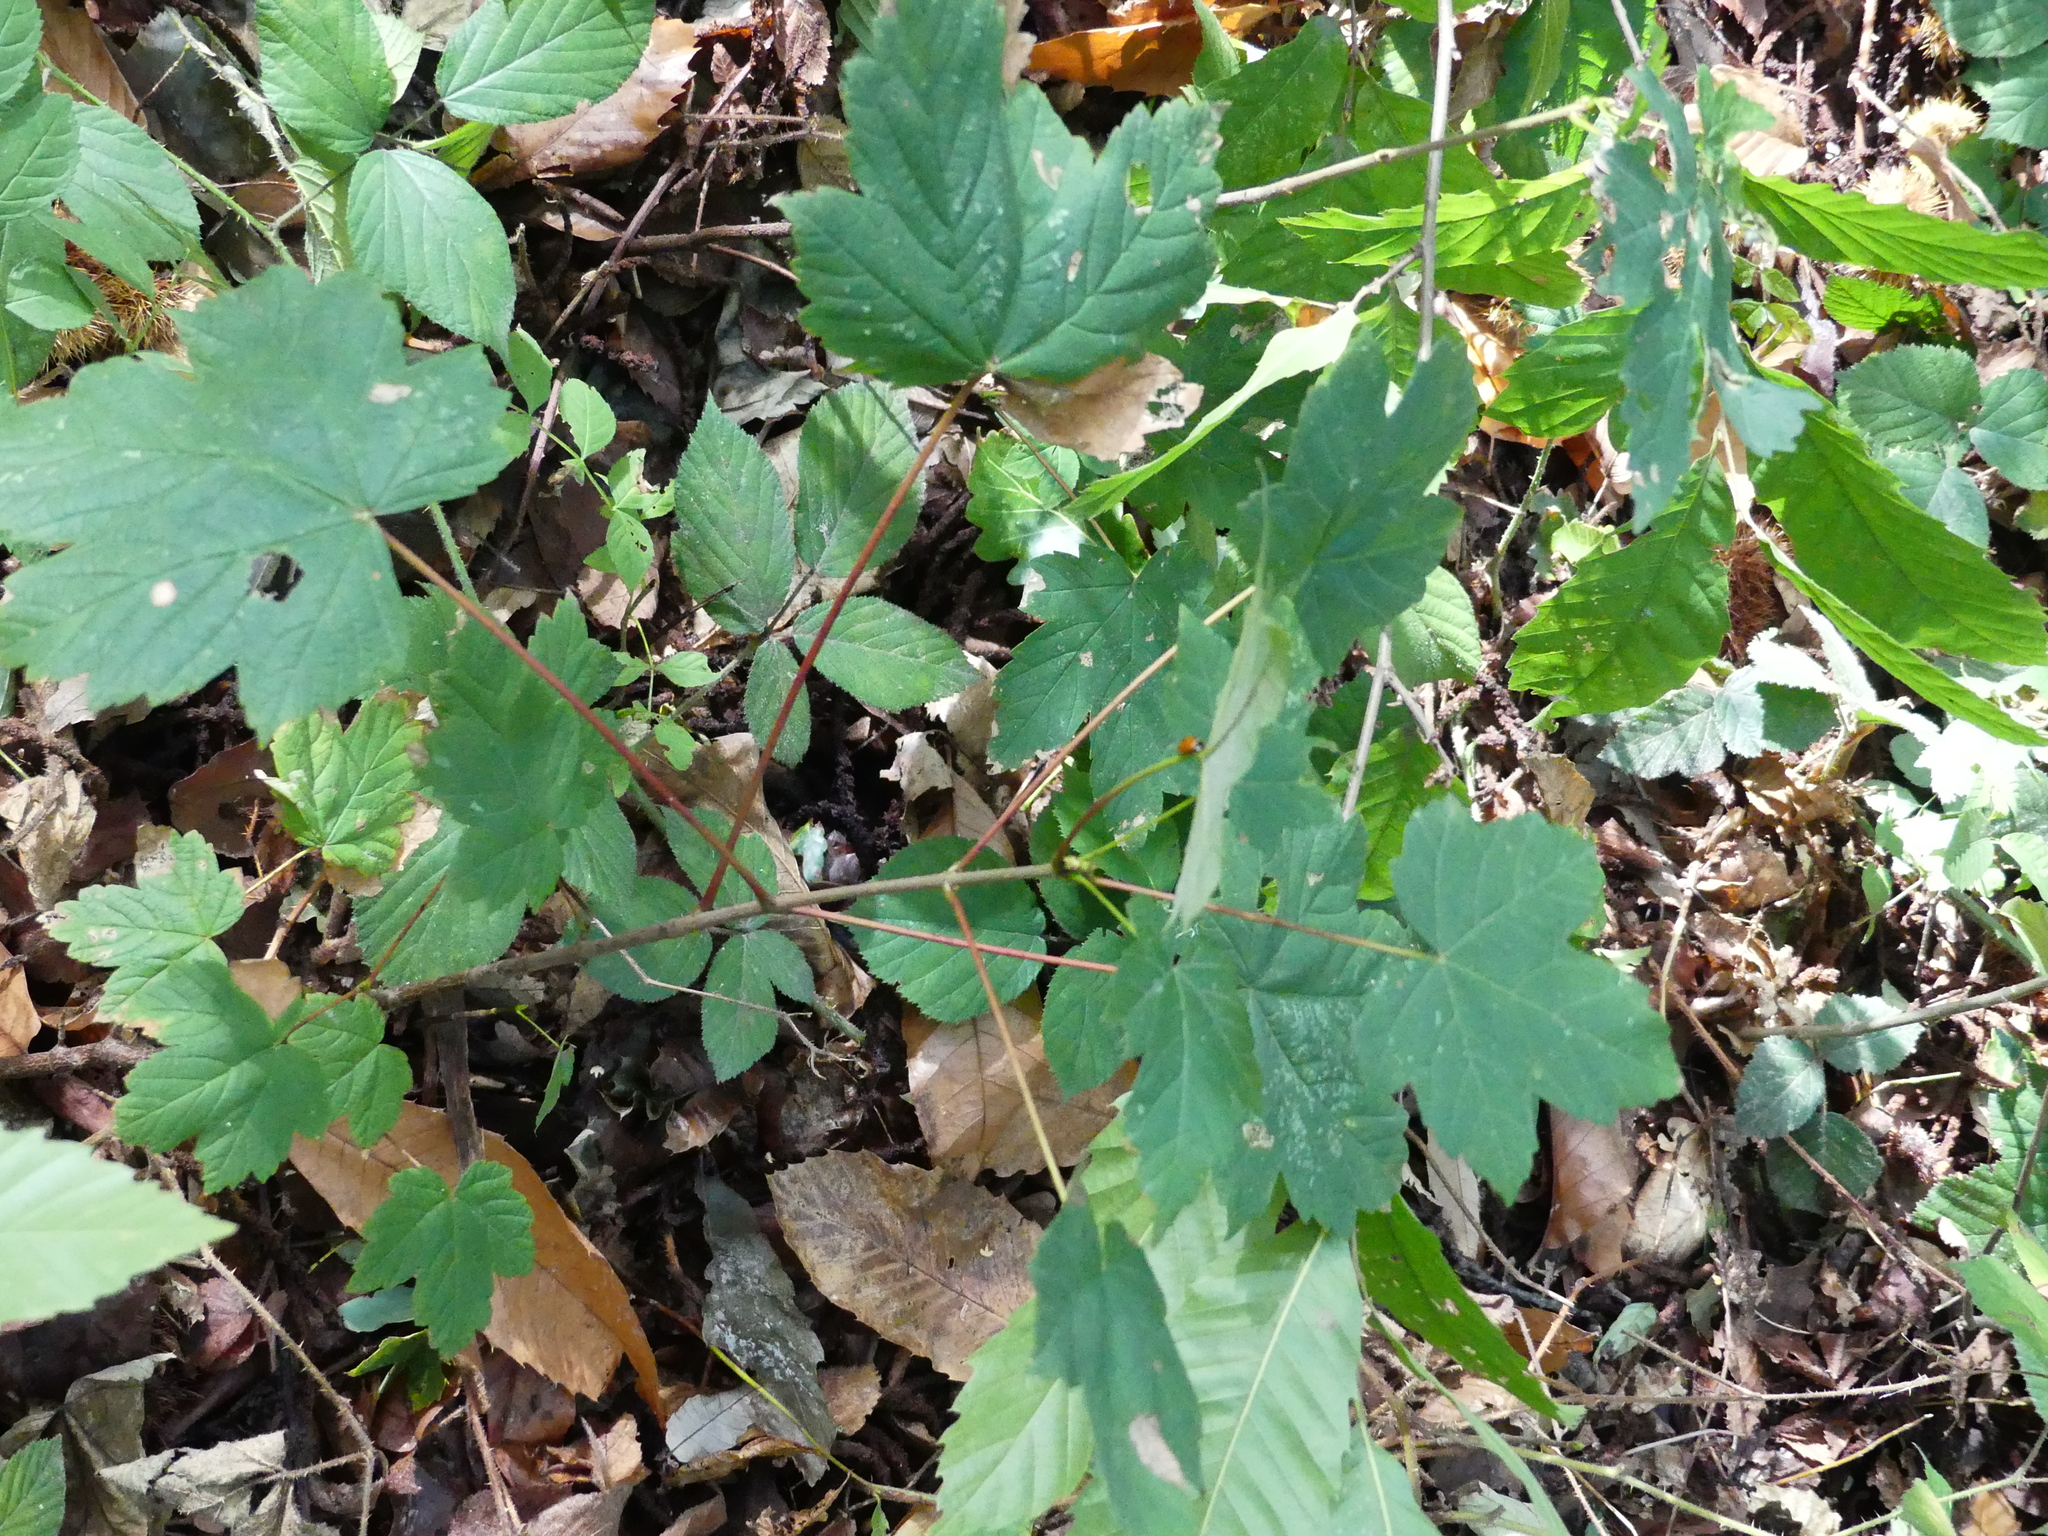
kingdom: Plantae
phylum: Tracheophyta
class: Magnoliopsida
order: Sapindales
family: Sapindaceae
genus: Acer
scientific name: Acer pseudoplatanus
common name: Sycamore
